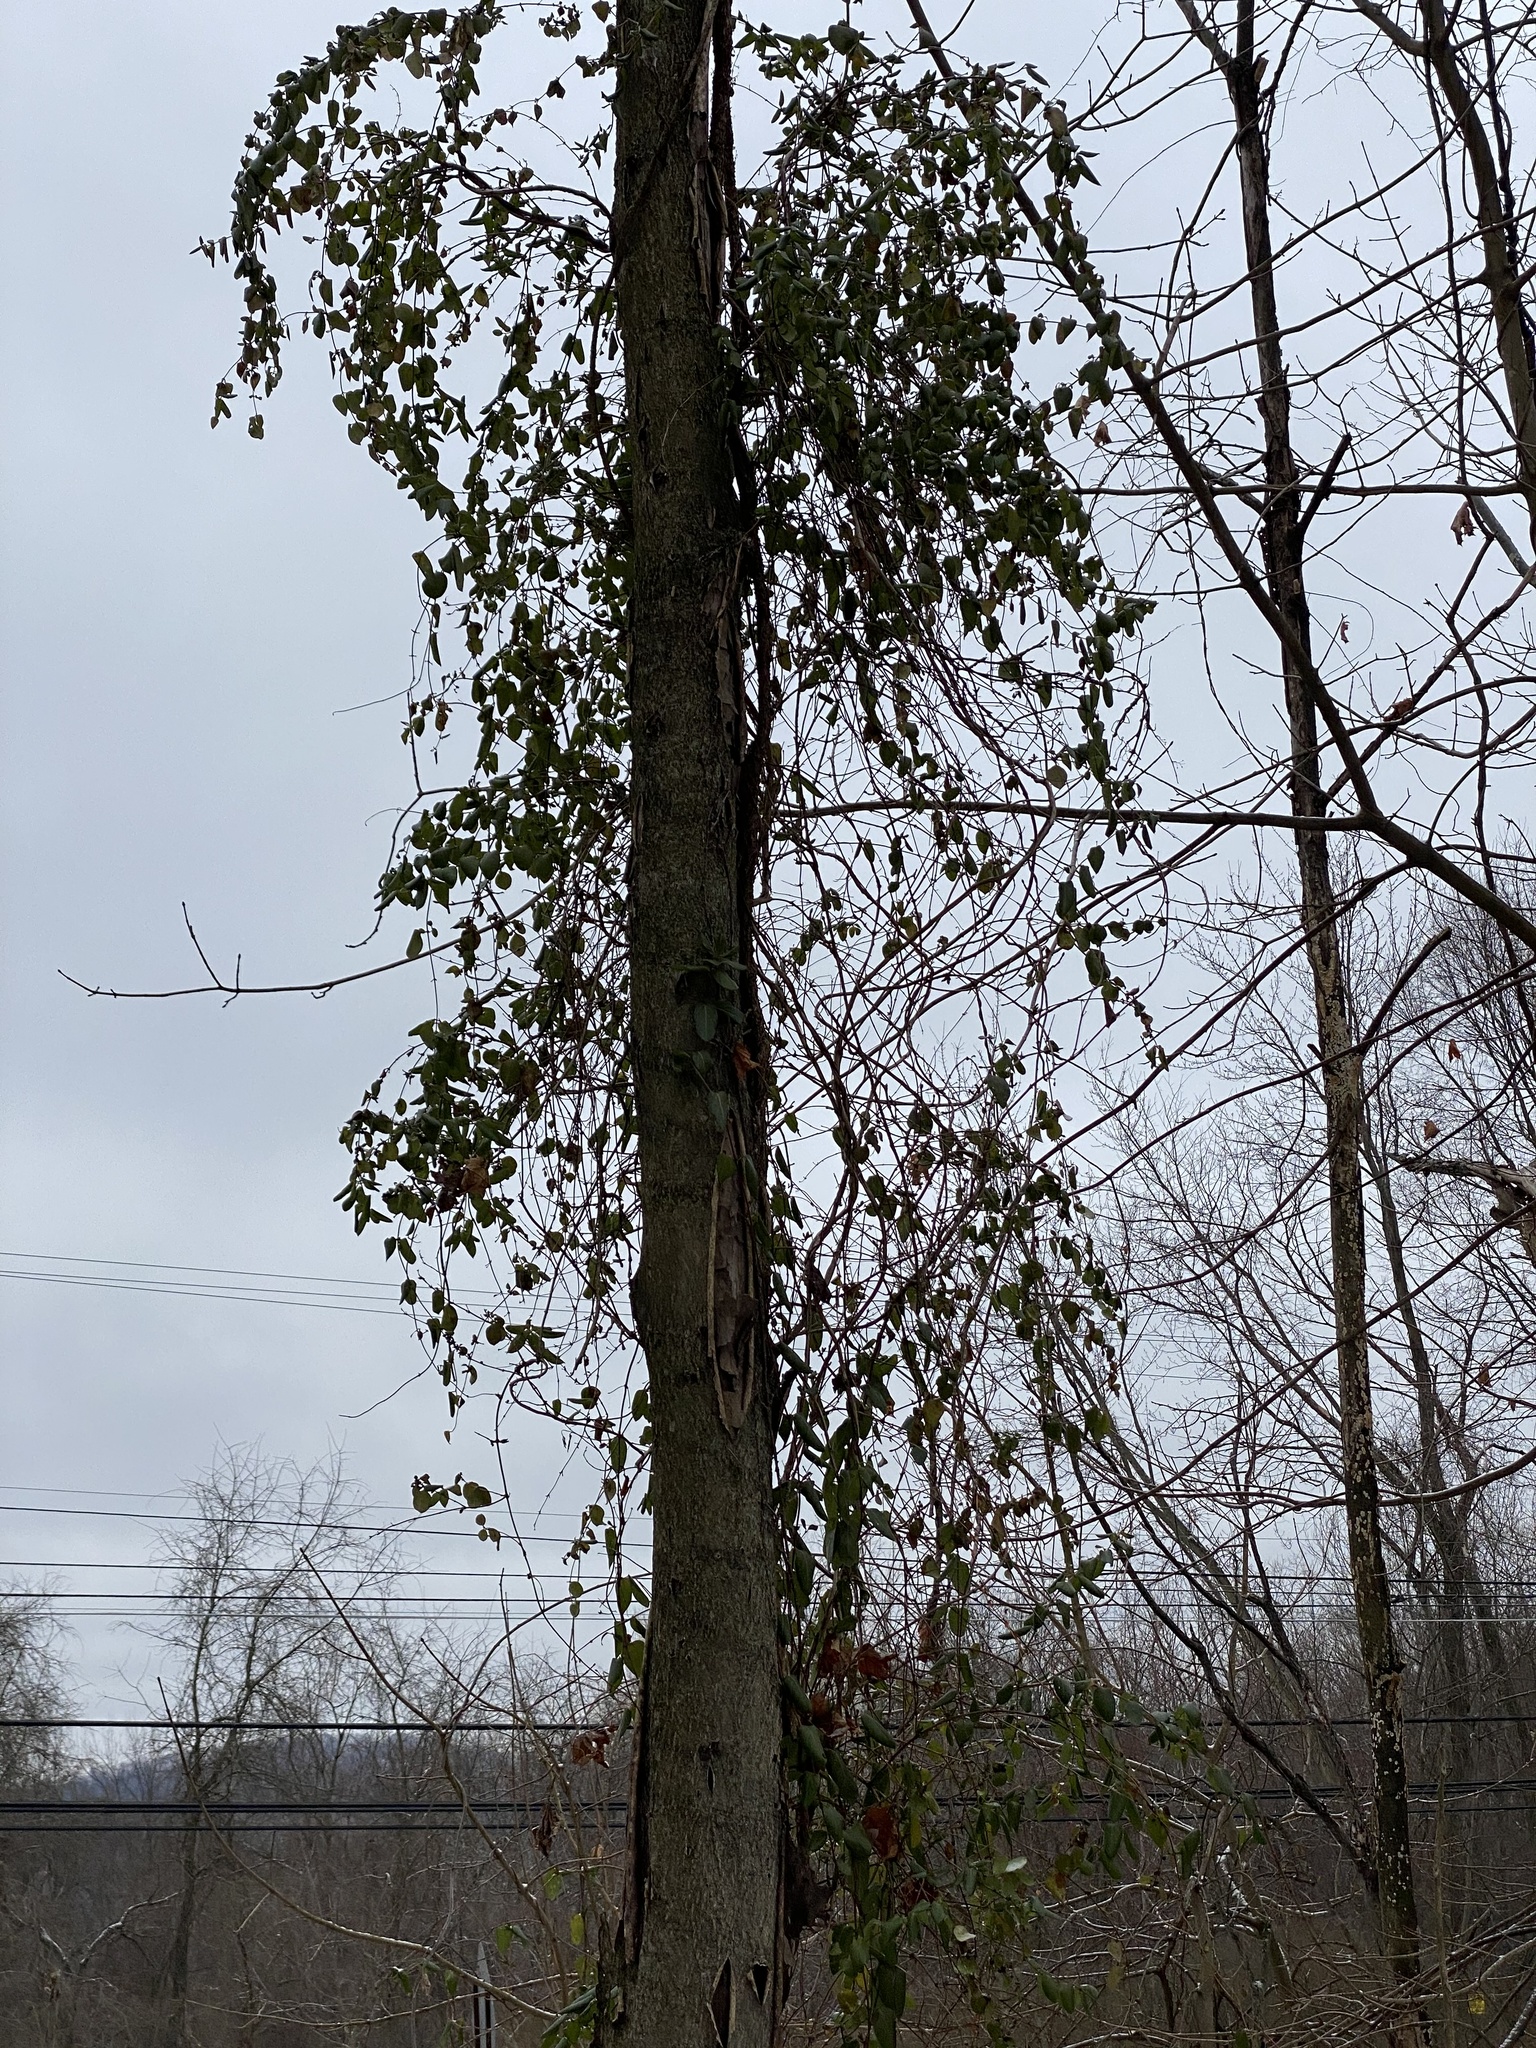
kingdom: Plantae
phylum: Tracheophyta
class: Magnoliopsida
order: Dipsacales
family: Caprifoliaceae
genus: Lonicera
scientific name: Lonicera japonica
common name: Japanese honeysuckle
